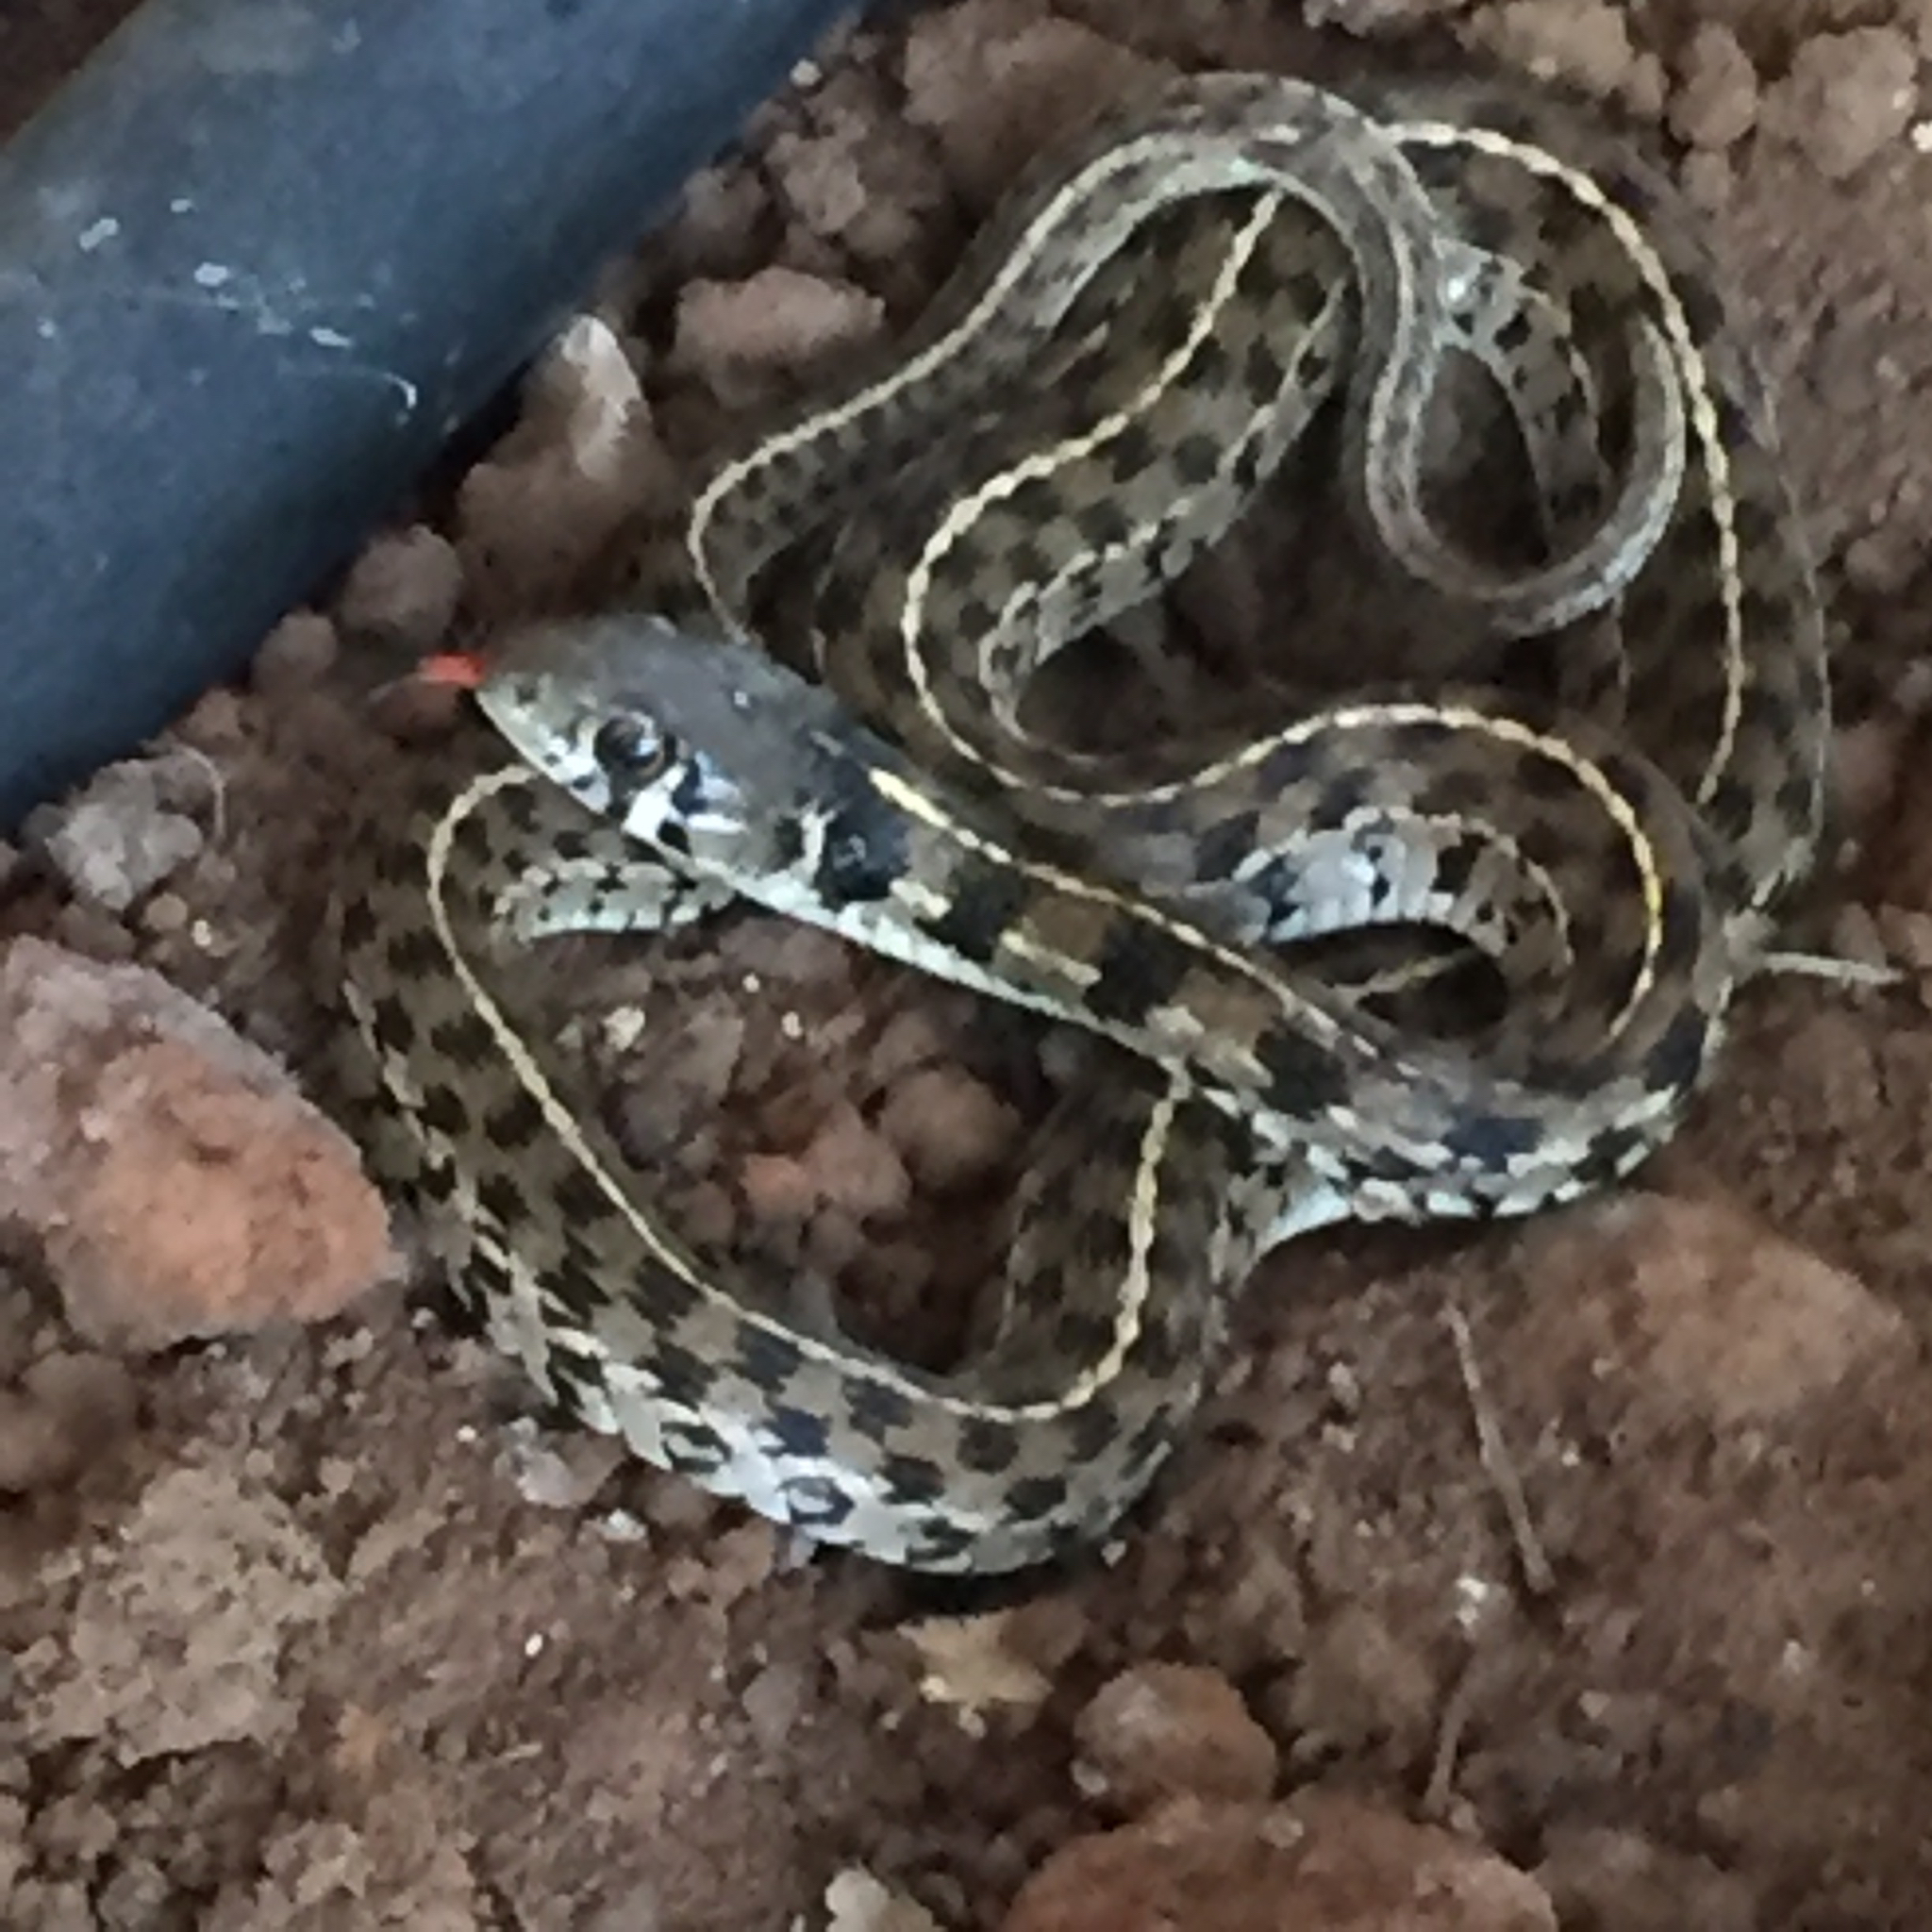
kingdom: Animalia
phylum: Chordata
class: Squamata
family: Colubridae
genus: Thamnophis
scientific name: Thamnophis marcianus
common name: Checkered garter snake
